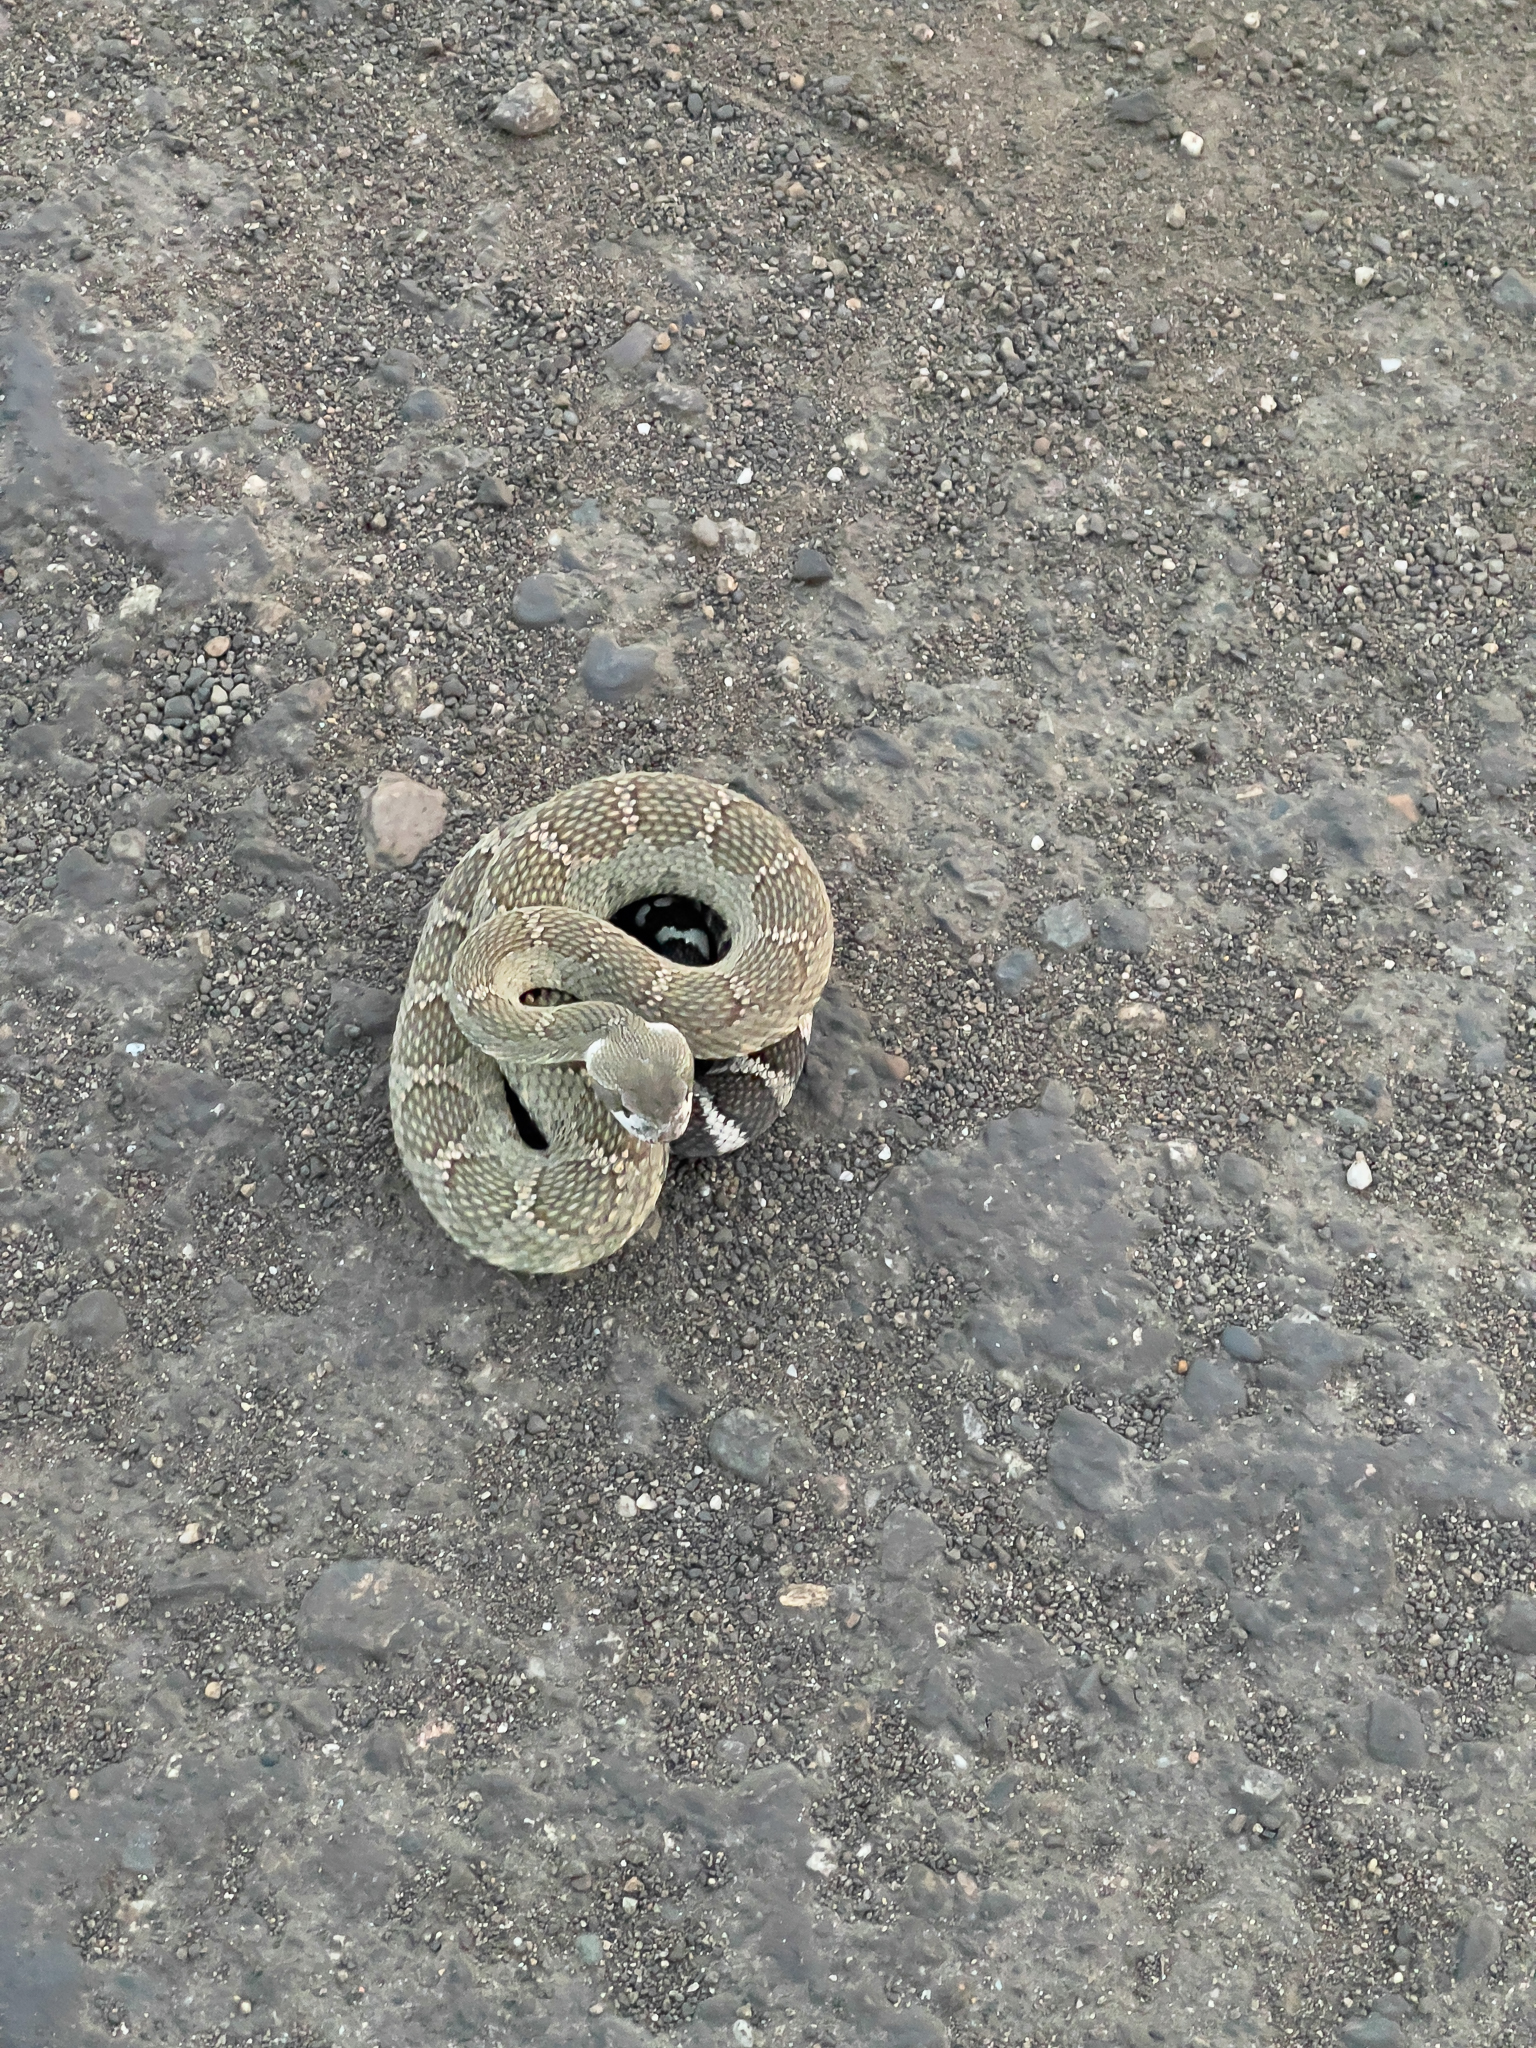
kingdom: Animalia
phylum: Chordata
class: Squamata
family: Viperidae
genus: Crotalus
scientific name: Crotalus oreganus
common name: Abyssus
